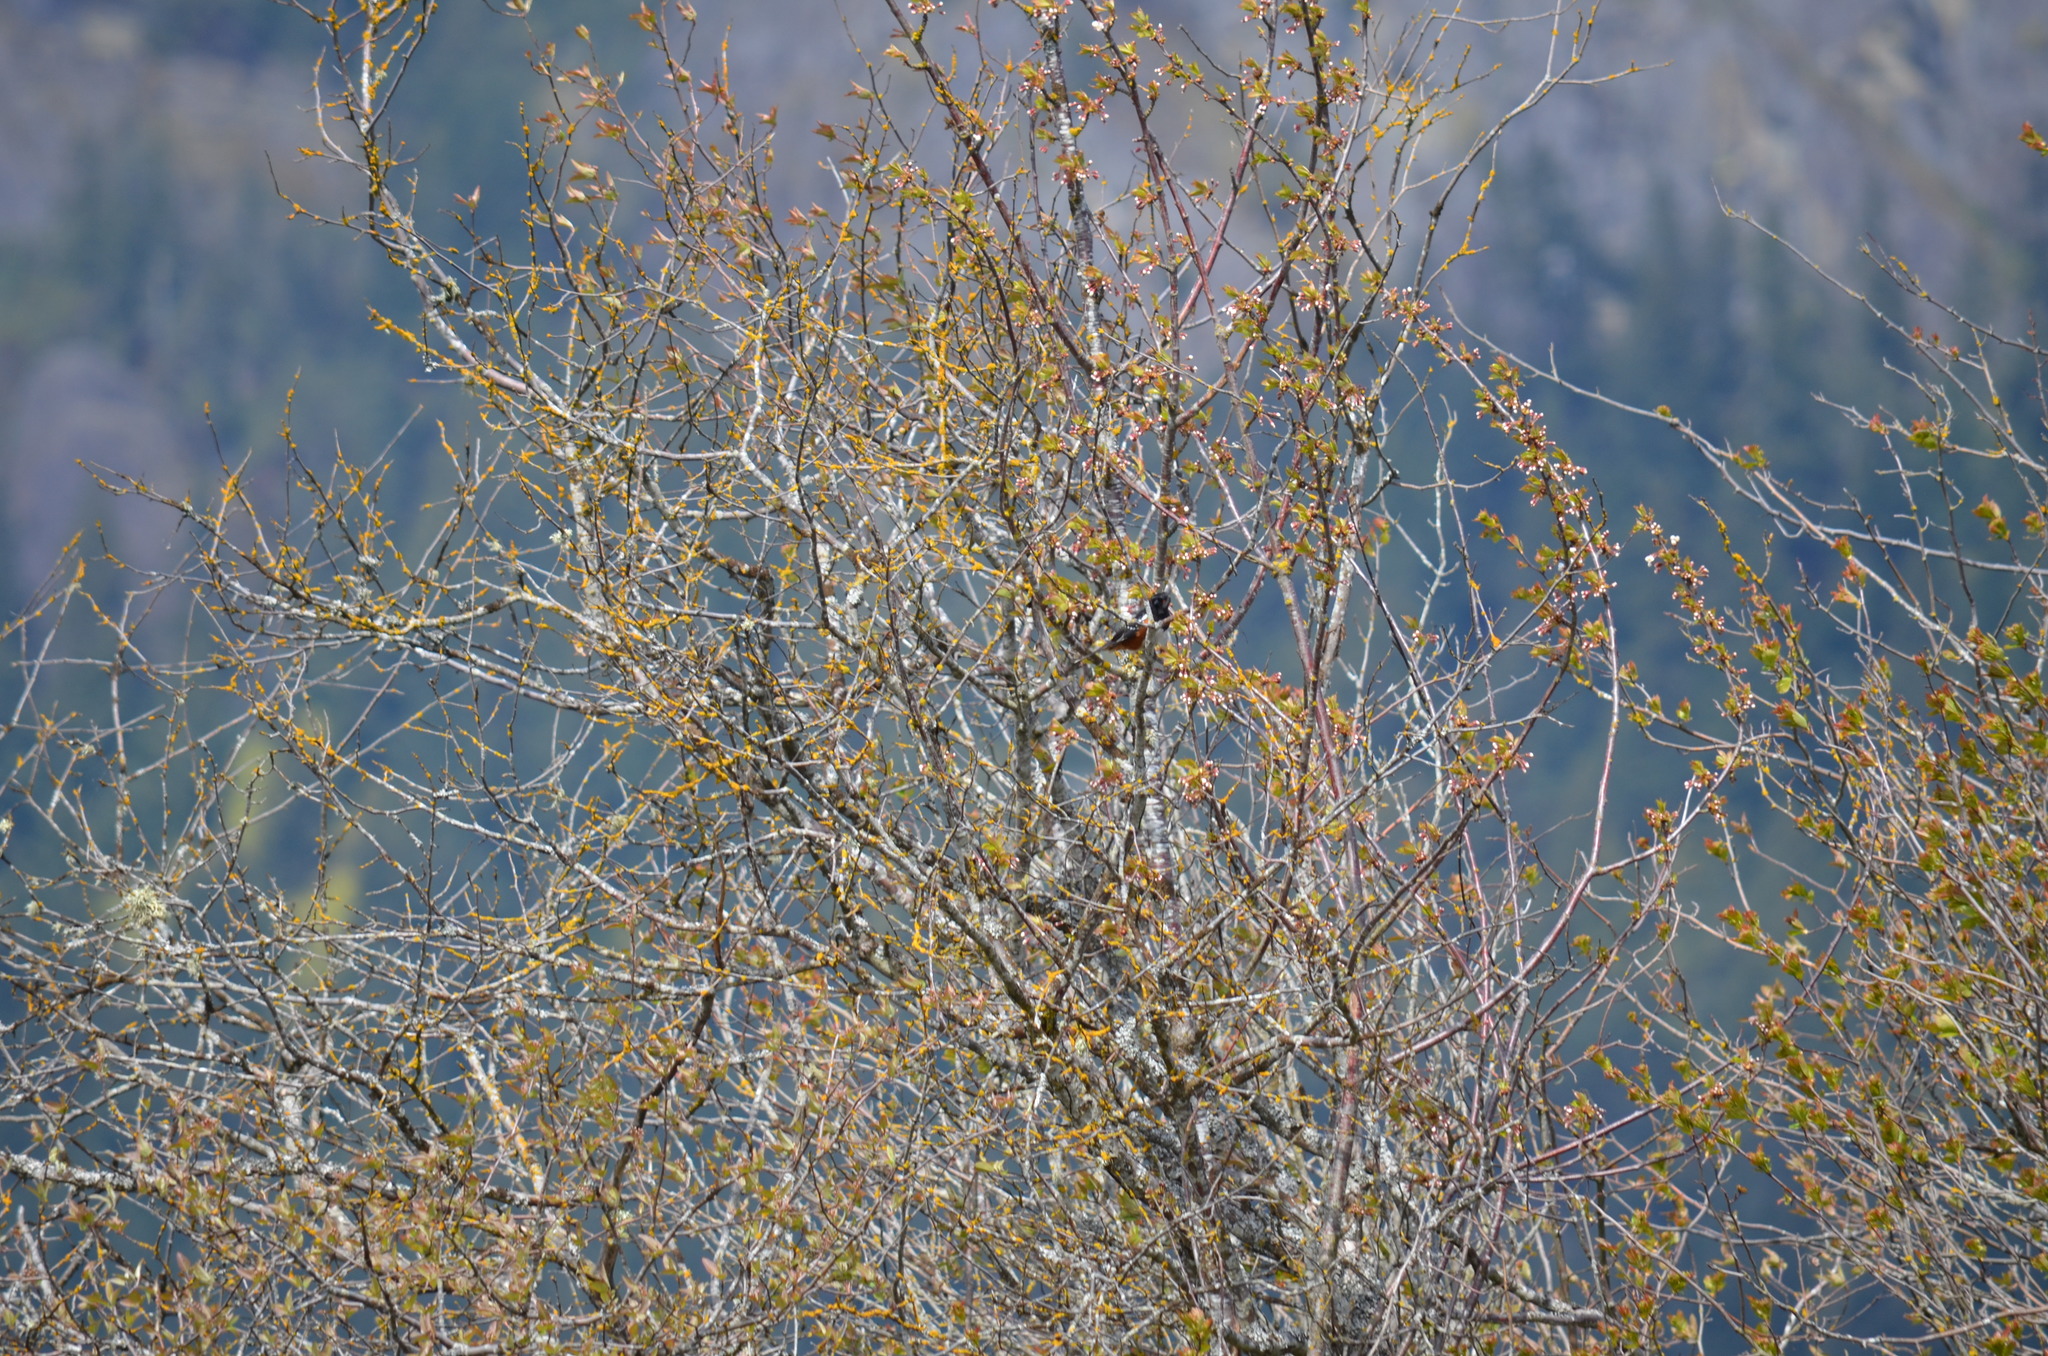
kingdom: Animalia
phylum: Chordata
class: Aves
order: Passeriformes
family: Passerellidae
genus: Pipilo
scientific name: Pipilo maculatus
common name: Spotted towhee
